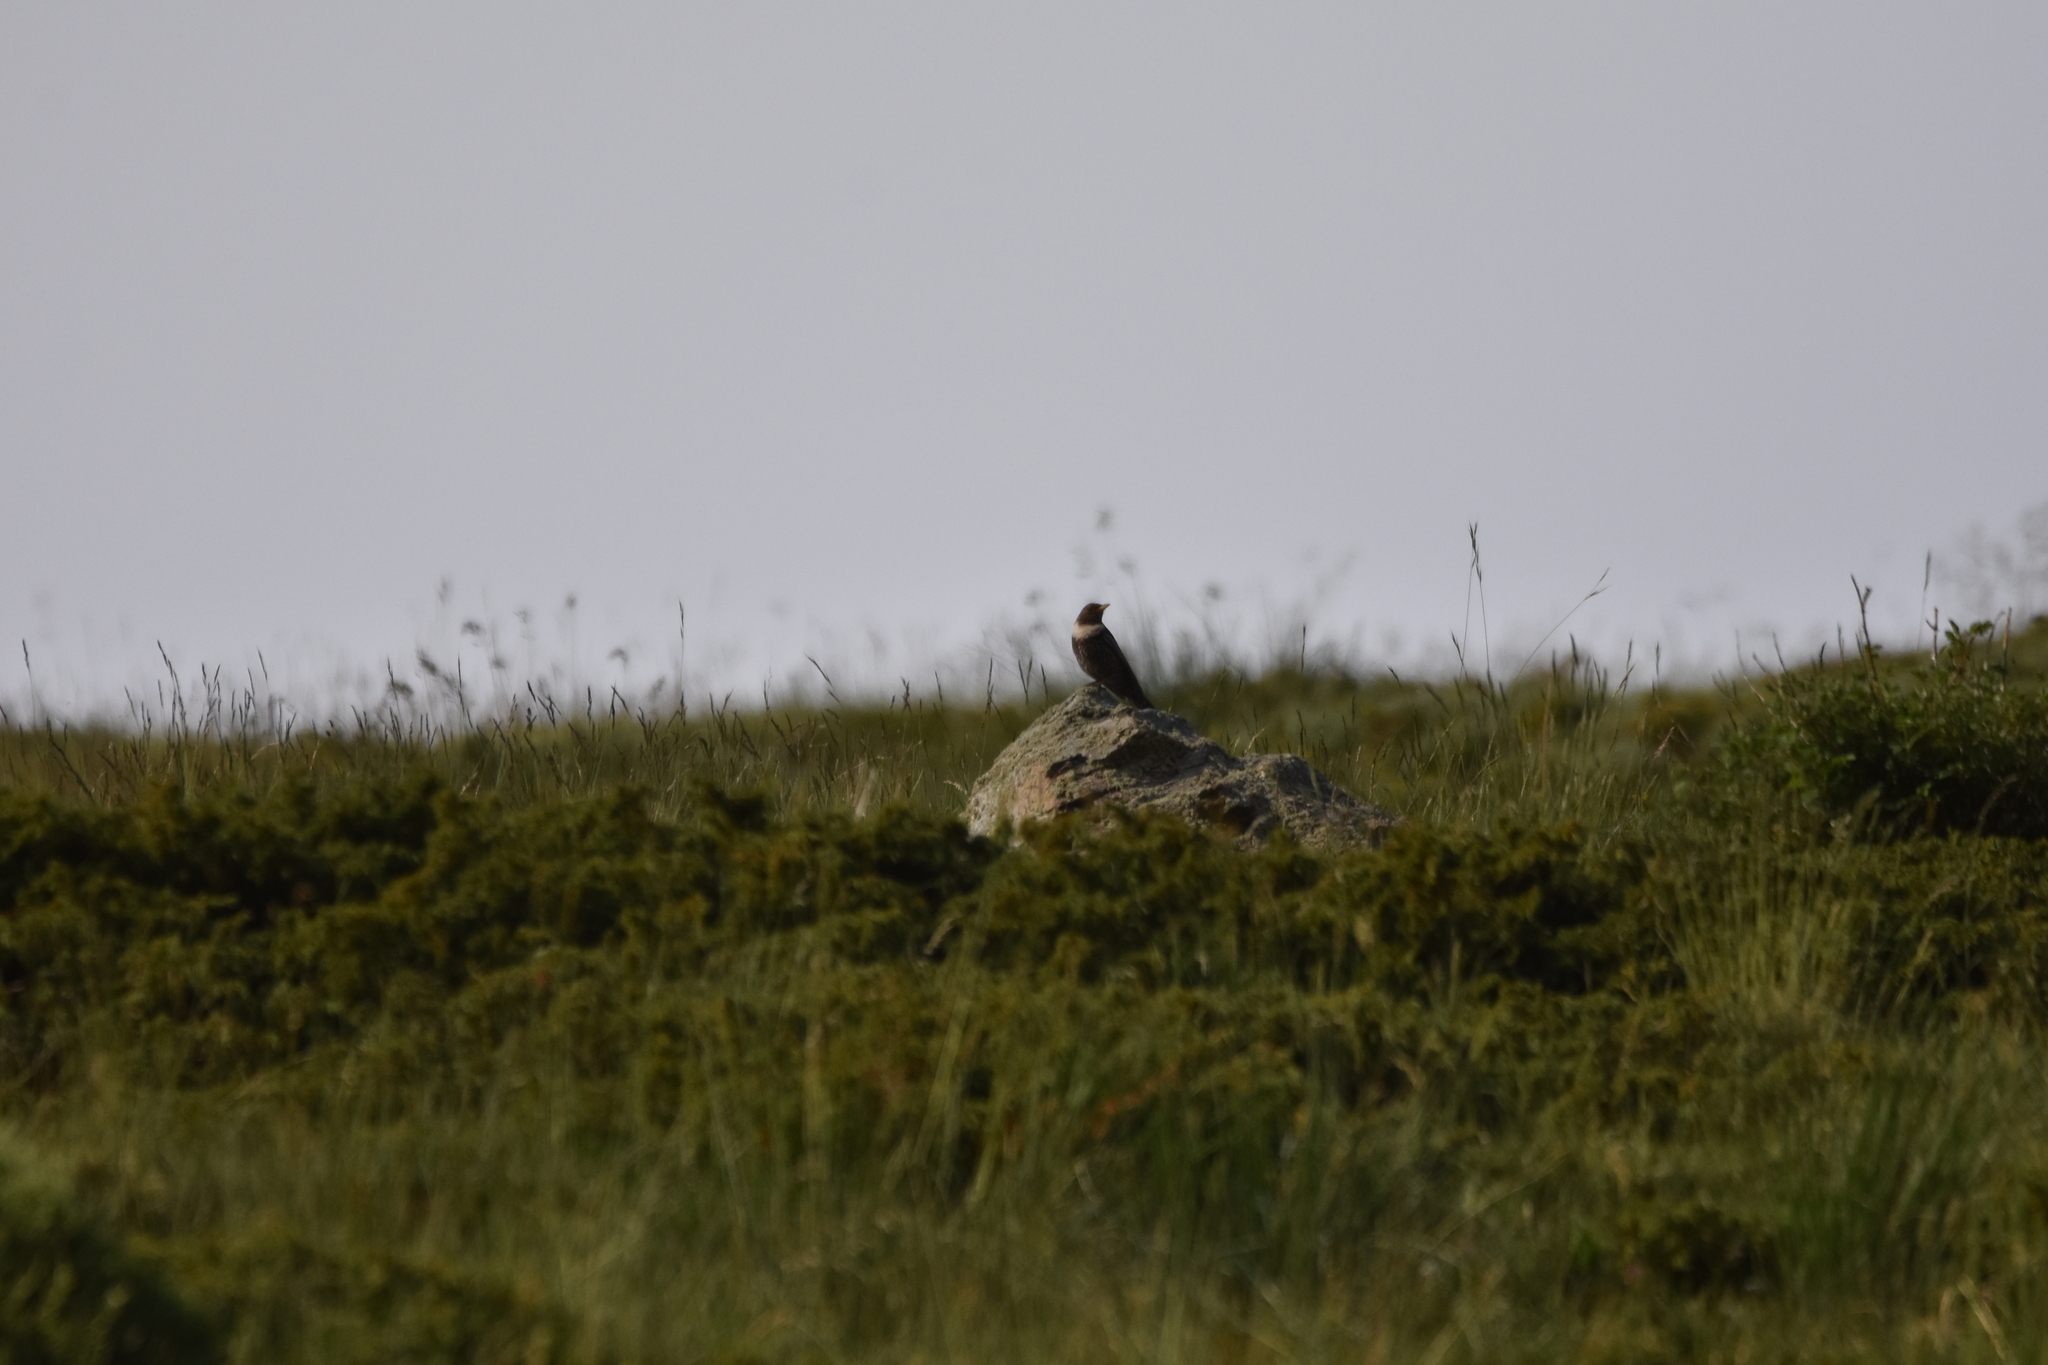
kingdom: Animalia
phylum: Chordata
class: Aves
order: Passeriformes
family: Turdidae
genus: Turdus
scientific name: Turdus torquatus
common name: Ring ouzel
